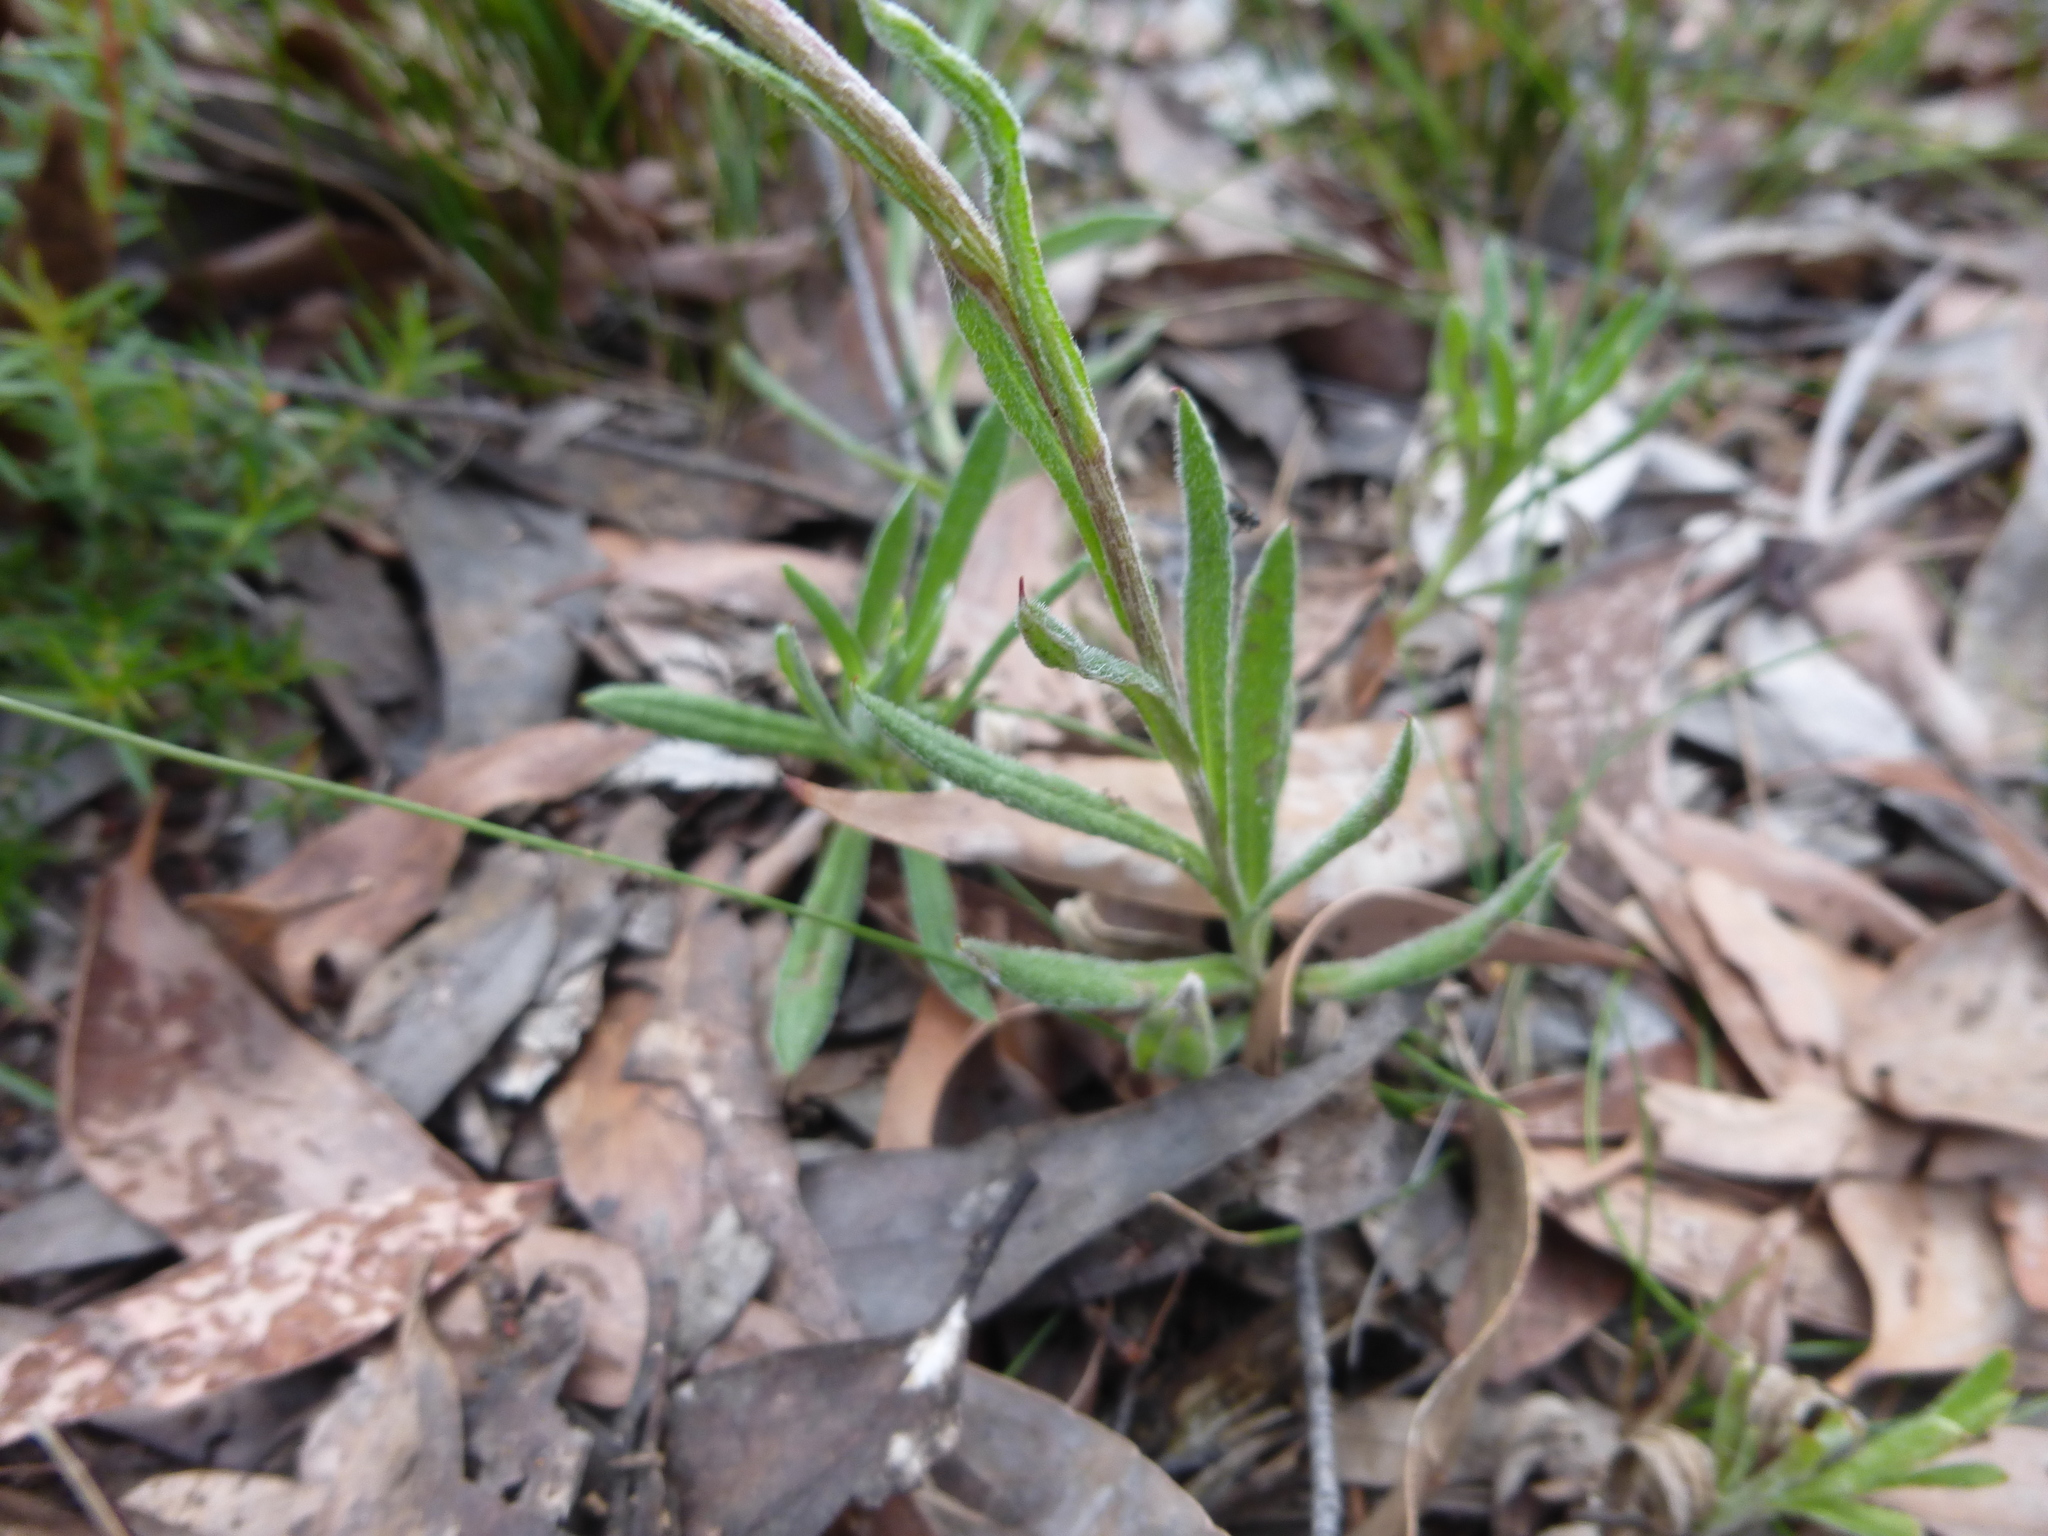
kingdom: Plantae
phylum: Tracheophyta
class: Magnoliopsida
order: Asterales
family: Asteraceae
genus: Coronidium
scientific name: Coronidium scorpioides
